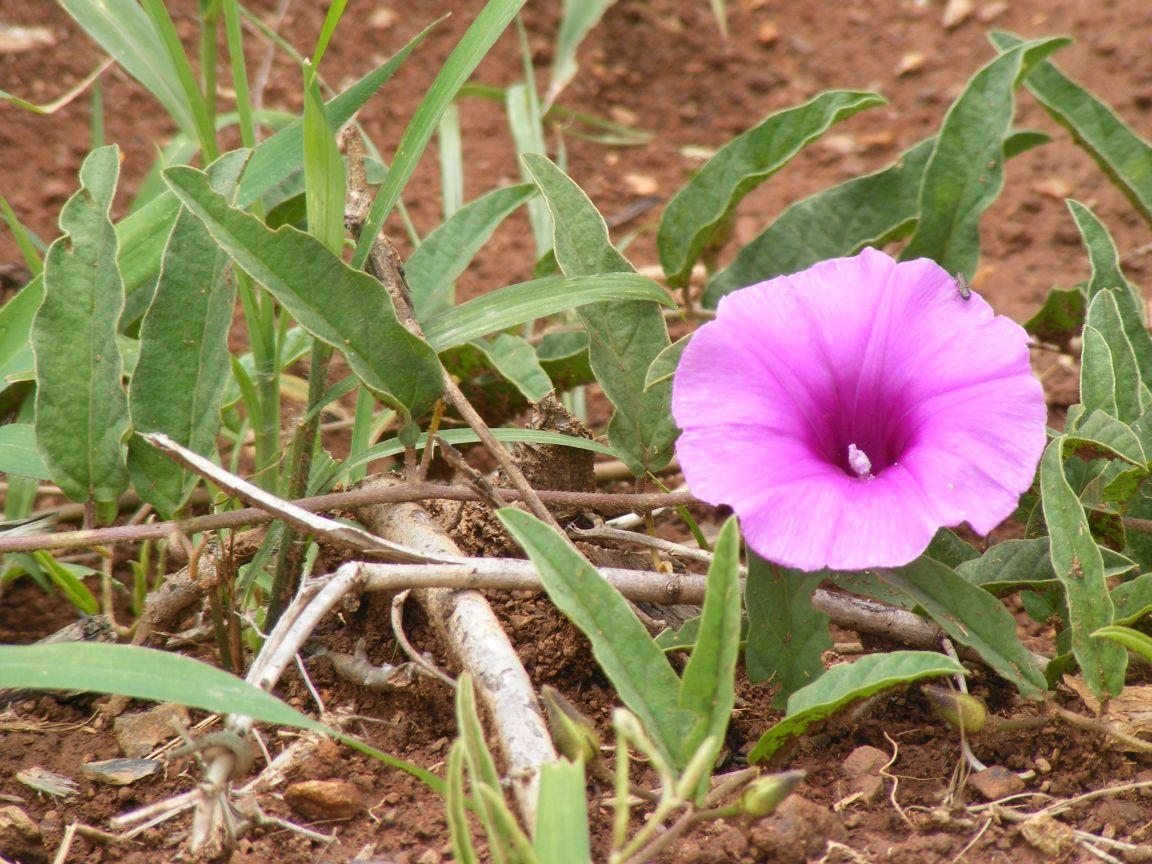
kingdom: Plantae
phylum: Tracheophyta
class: Magnoliopsida
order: Solanales
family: Convolvulaceae
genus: Ipomoea
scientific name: Ipomoea oblongata
